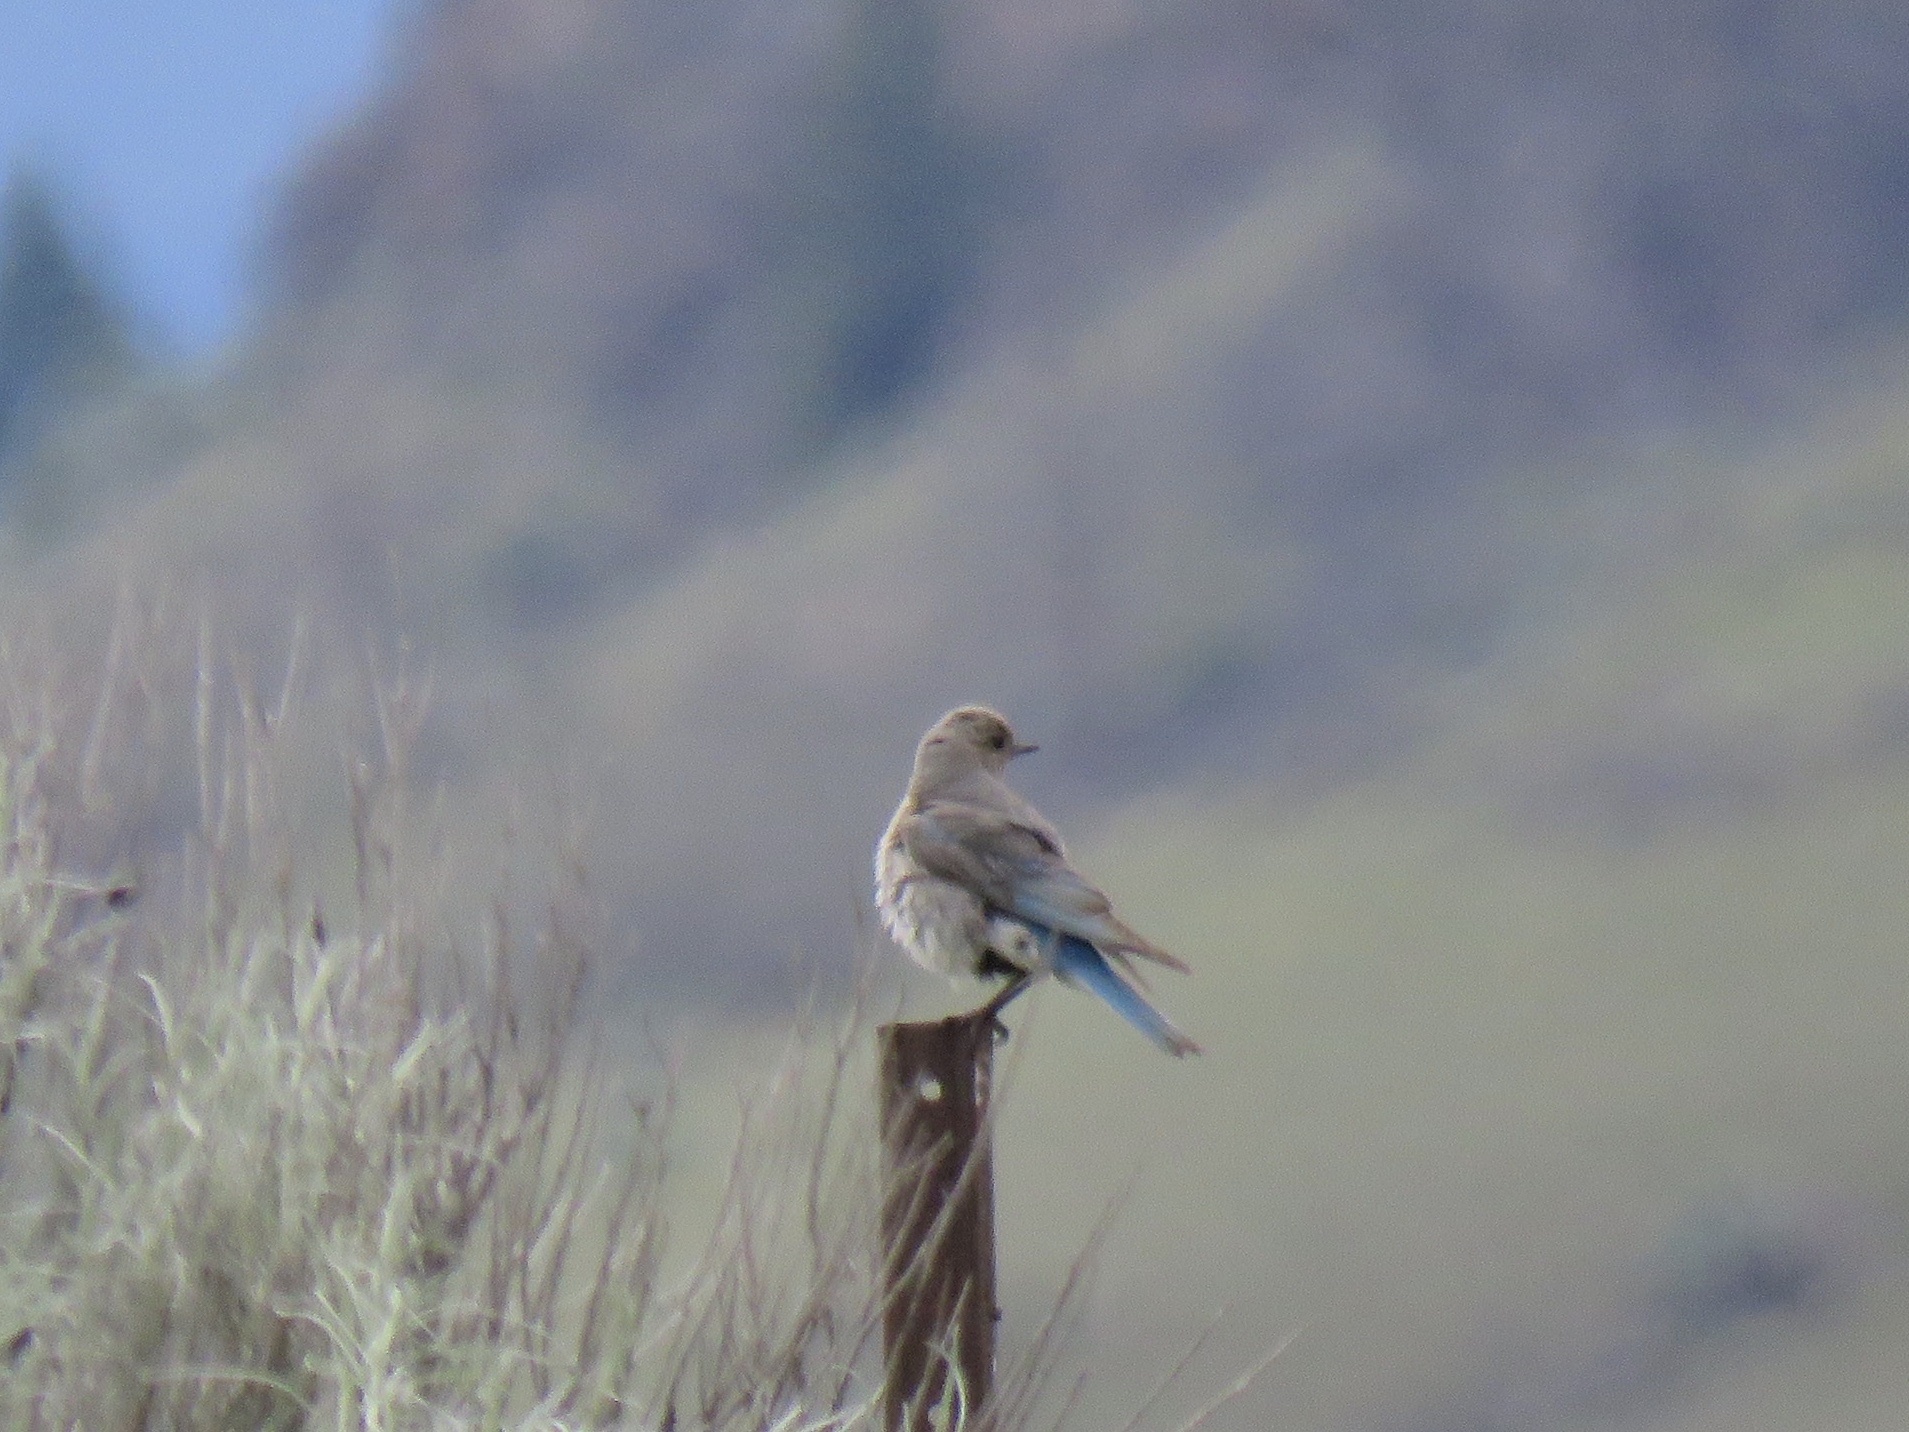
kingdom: Animalia
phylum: Chordata
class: Aves
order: Passeriformes
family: Turdidae
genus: Sialia
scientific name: Sialia currucoides
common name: Mountain bluebird
